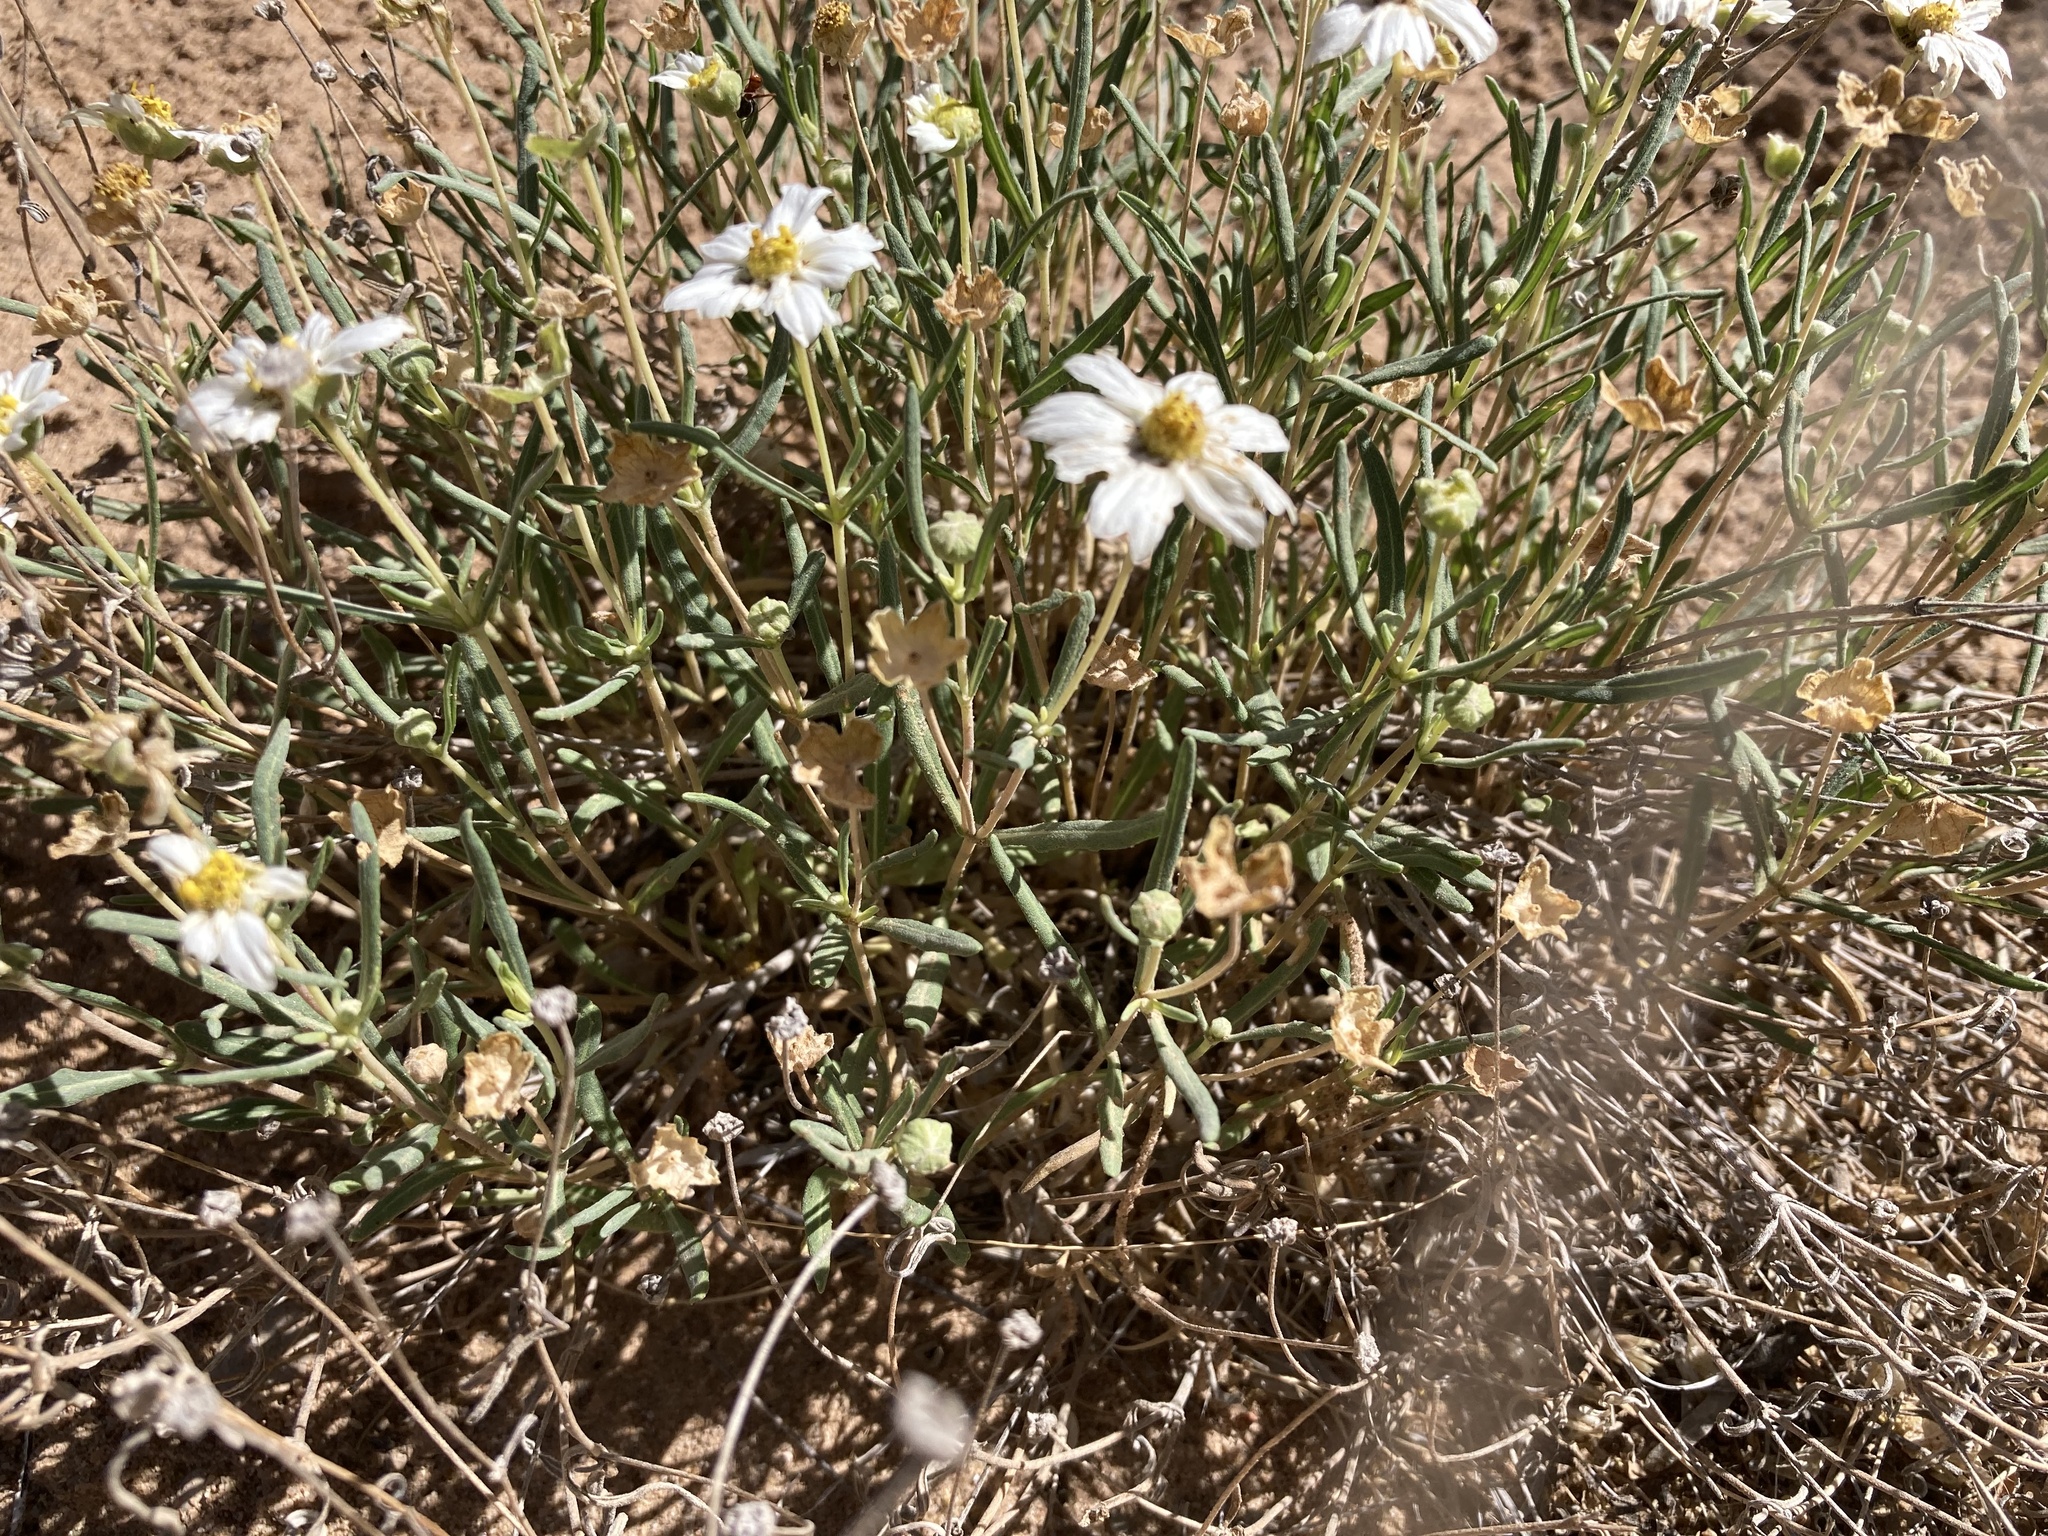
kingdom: Plantae
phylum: Tracheophyta
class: Magnoliopsida
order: Asterales
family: Asteraceae
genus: Melampodium
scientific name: Melampodium leucanthum
